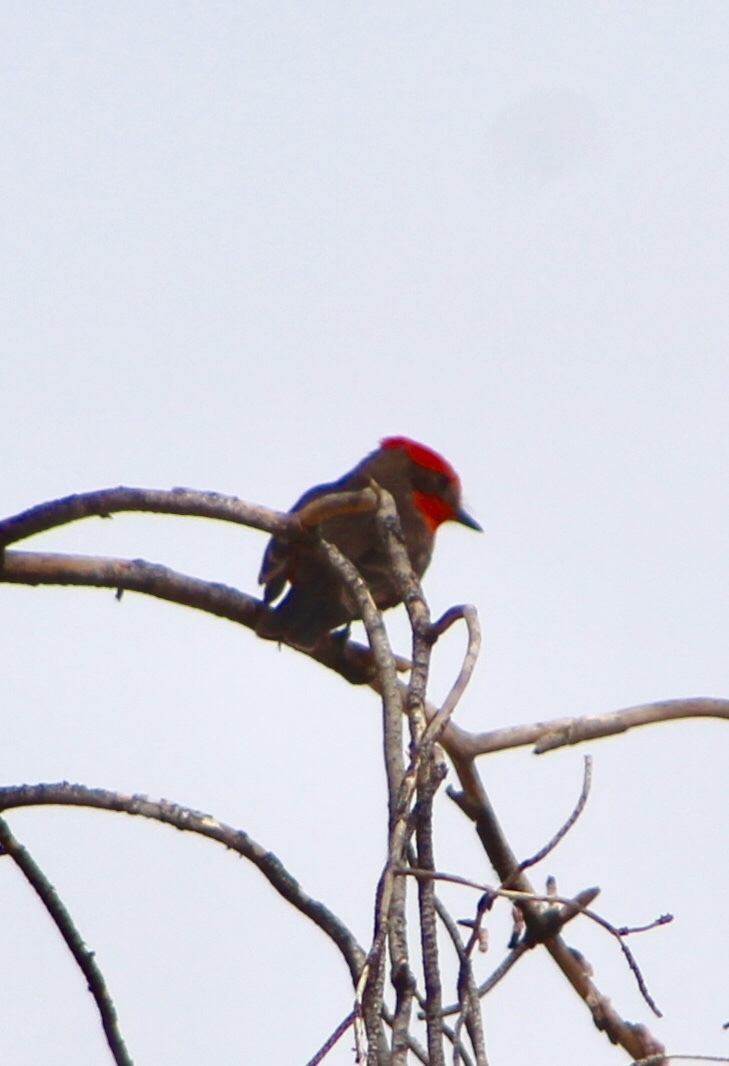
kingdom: Animalia
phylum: Chordata
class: Aves
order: Passeriformes
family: Tyrannidae
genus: Pyrocephalus
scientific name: Pyrocephalus rubinus
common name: Vermilion flycatcher
